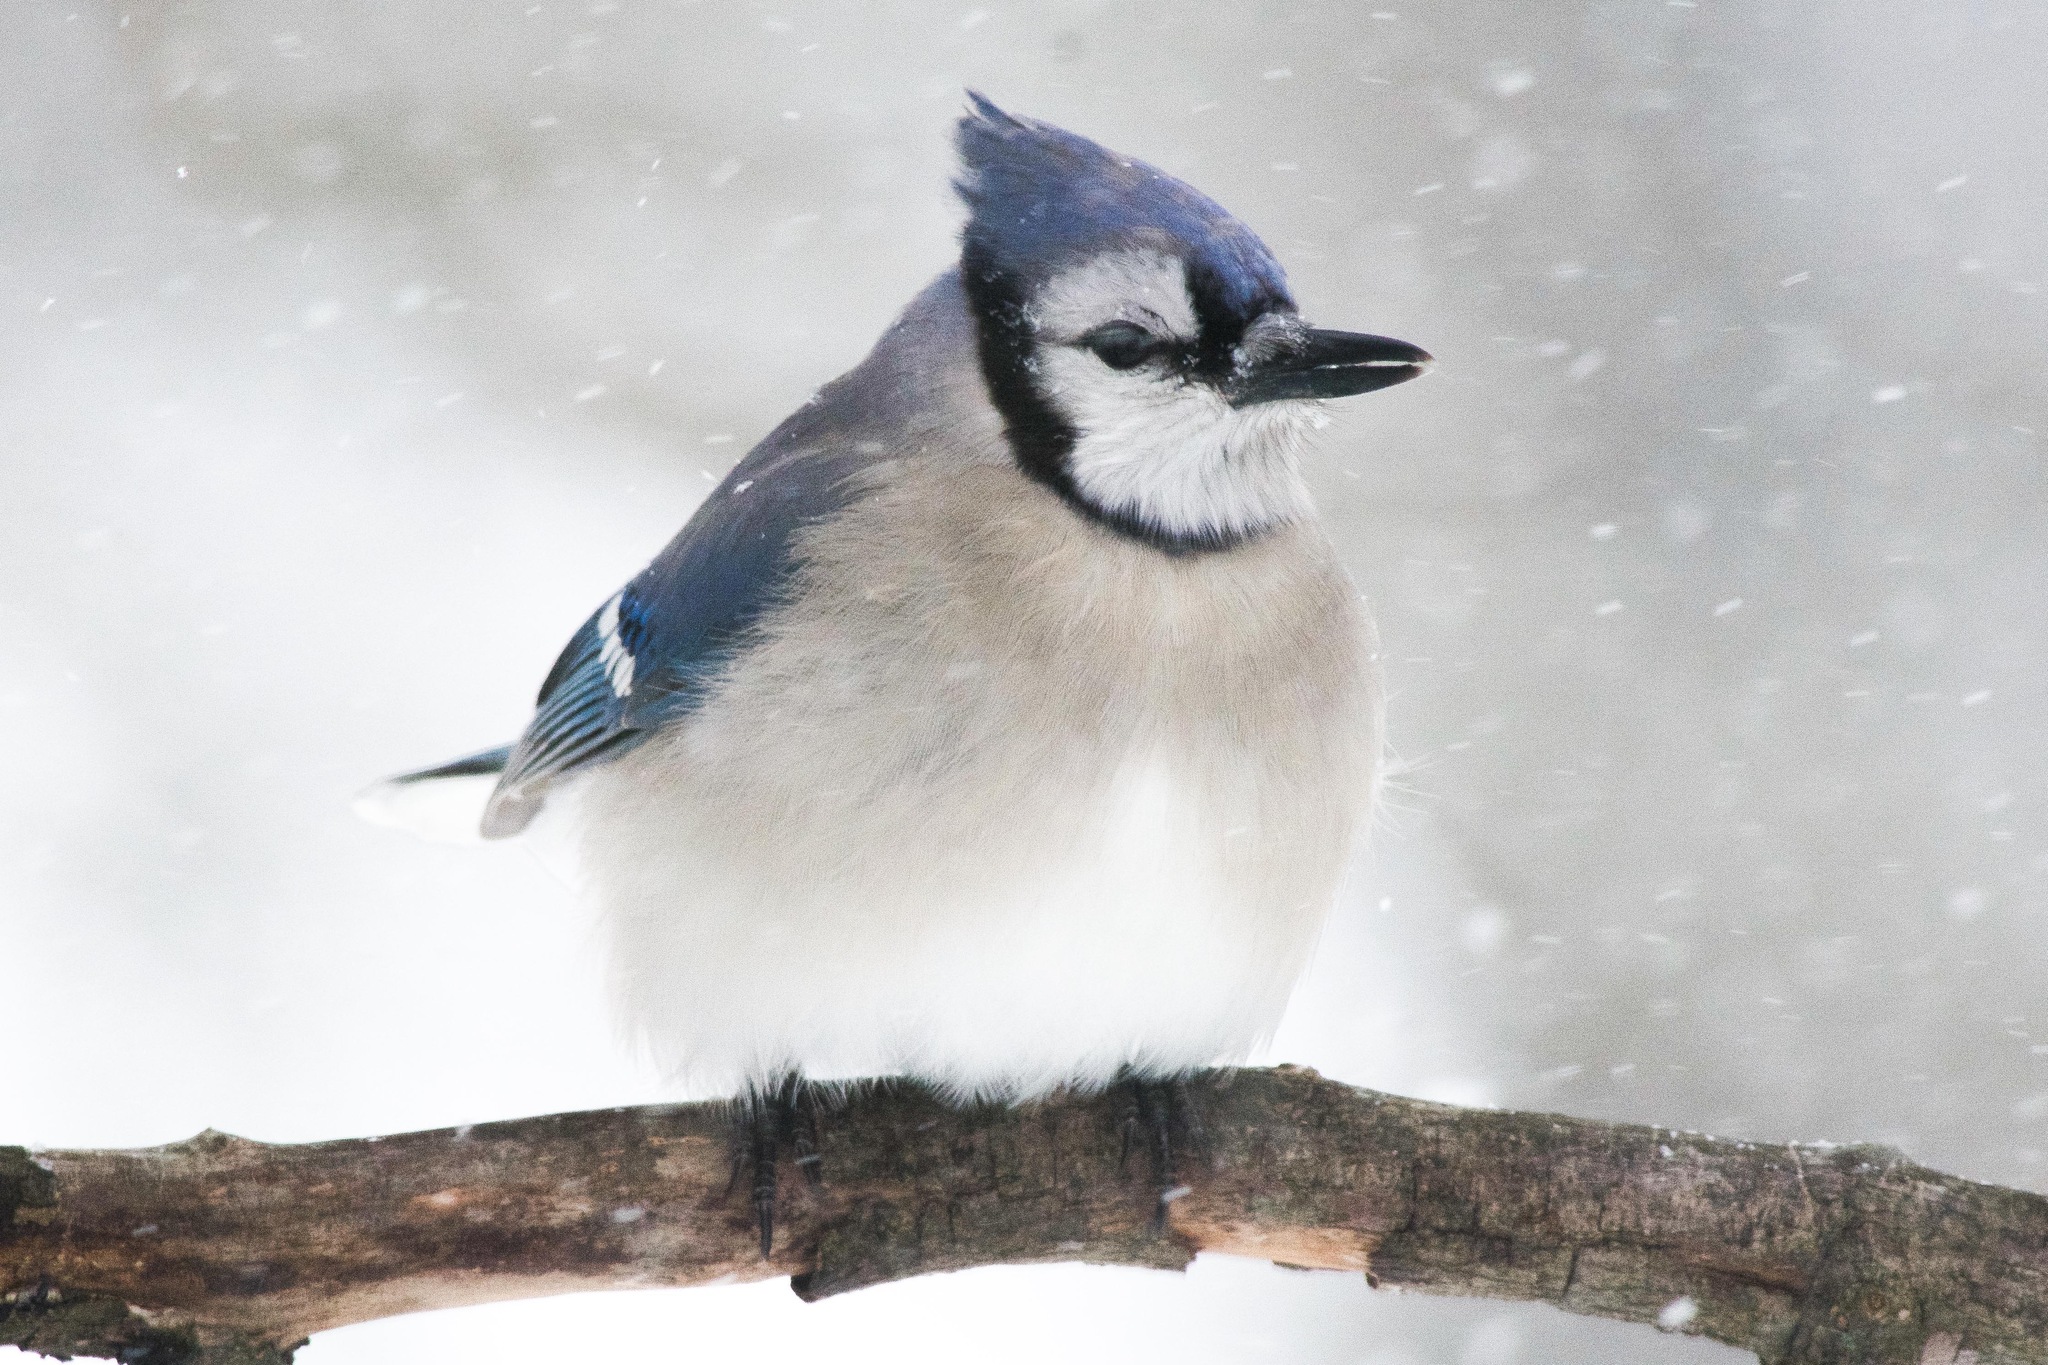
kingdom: Animalia
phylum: Chordata
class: Aves
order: Passeriformes
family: Corvidae
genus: Cyanocitta
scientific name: Cyanocitta cristata
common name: Blue jay
